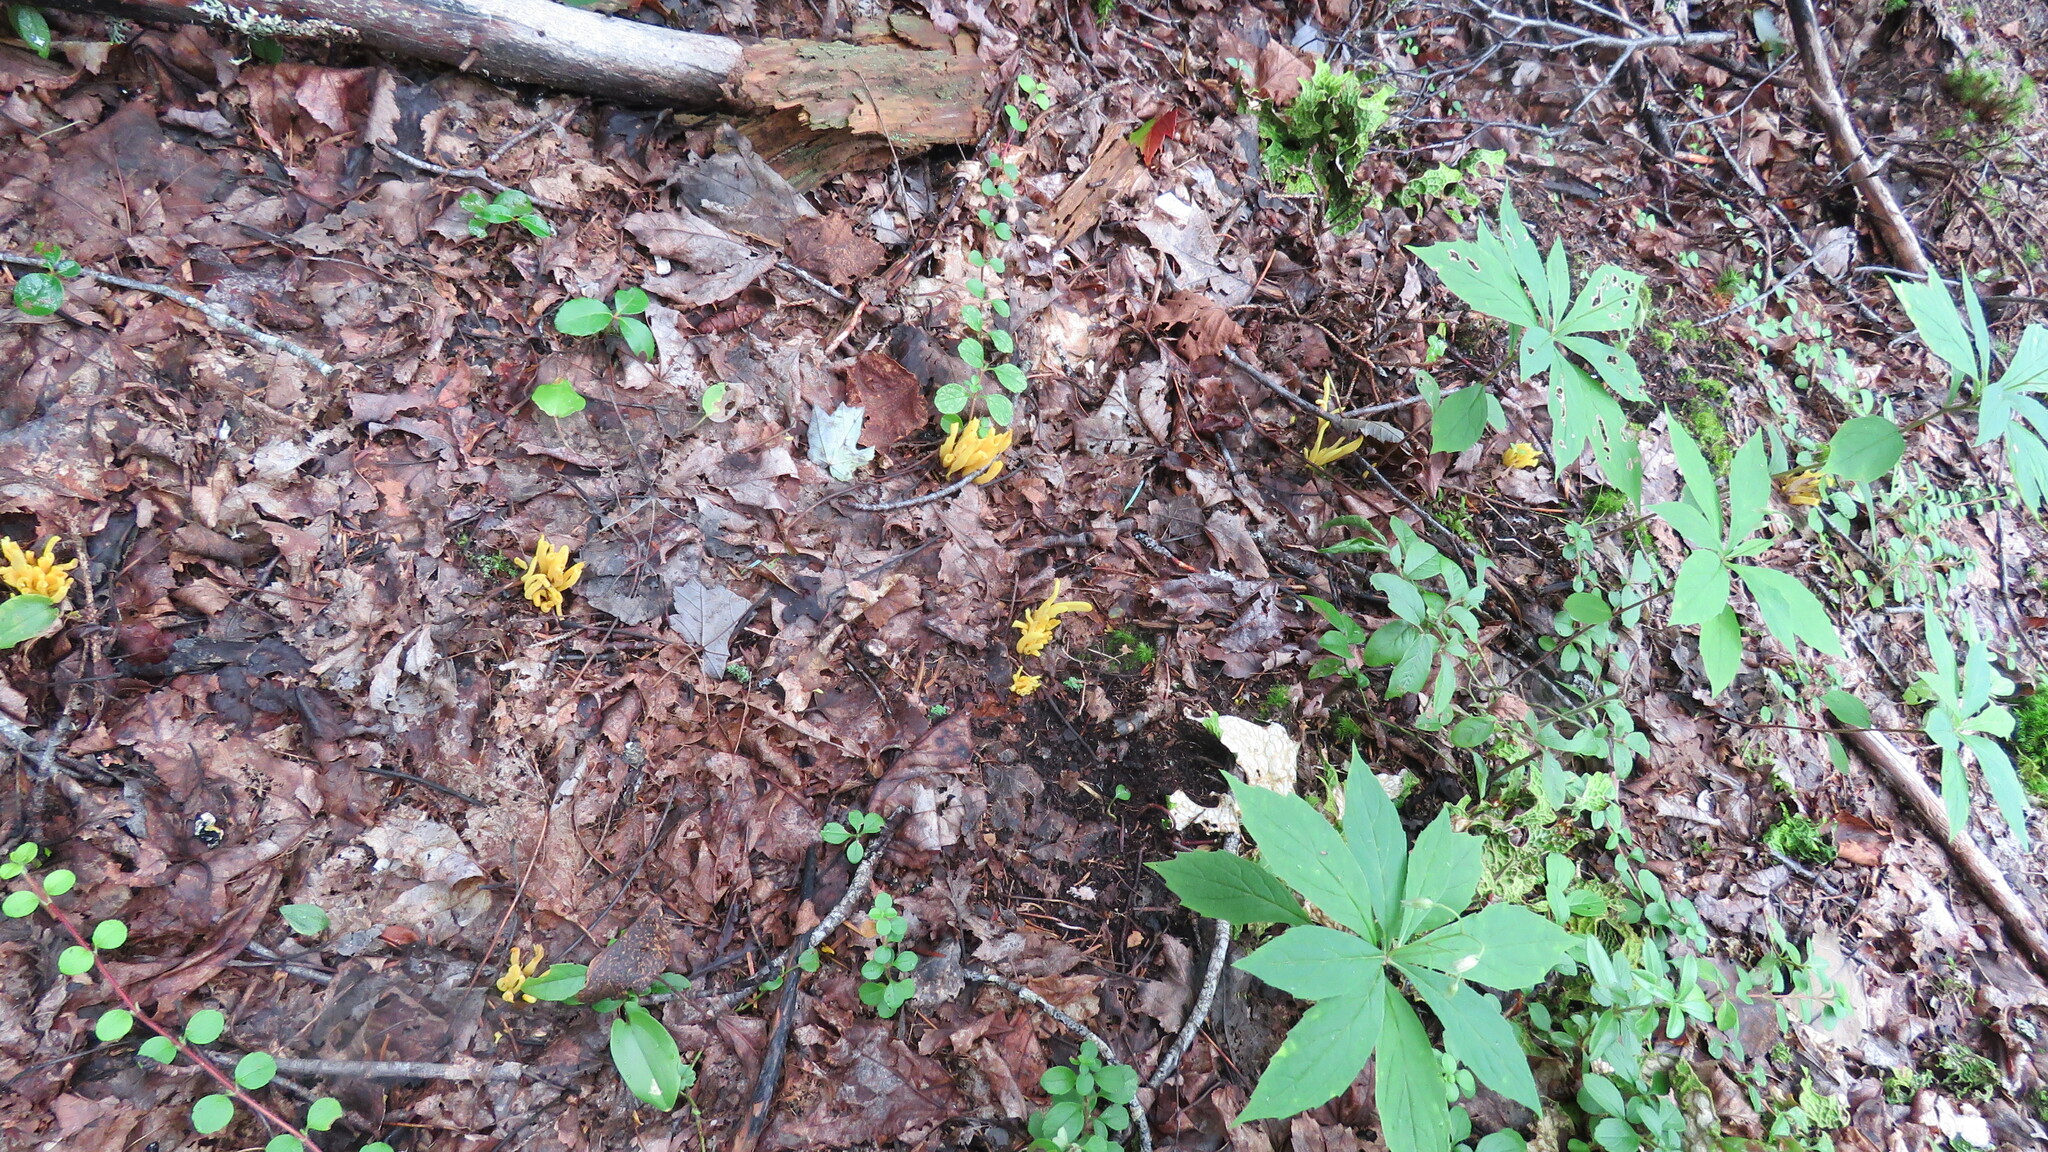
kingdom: Fungi
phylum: Basidiomycota
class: Agaricomycetes
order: Agaricales
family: Clavariaceae
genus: Clavulinopsis
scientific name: Clavulinopsis fusiformis
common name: Golden spindles
